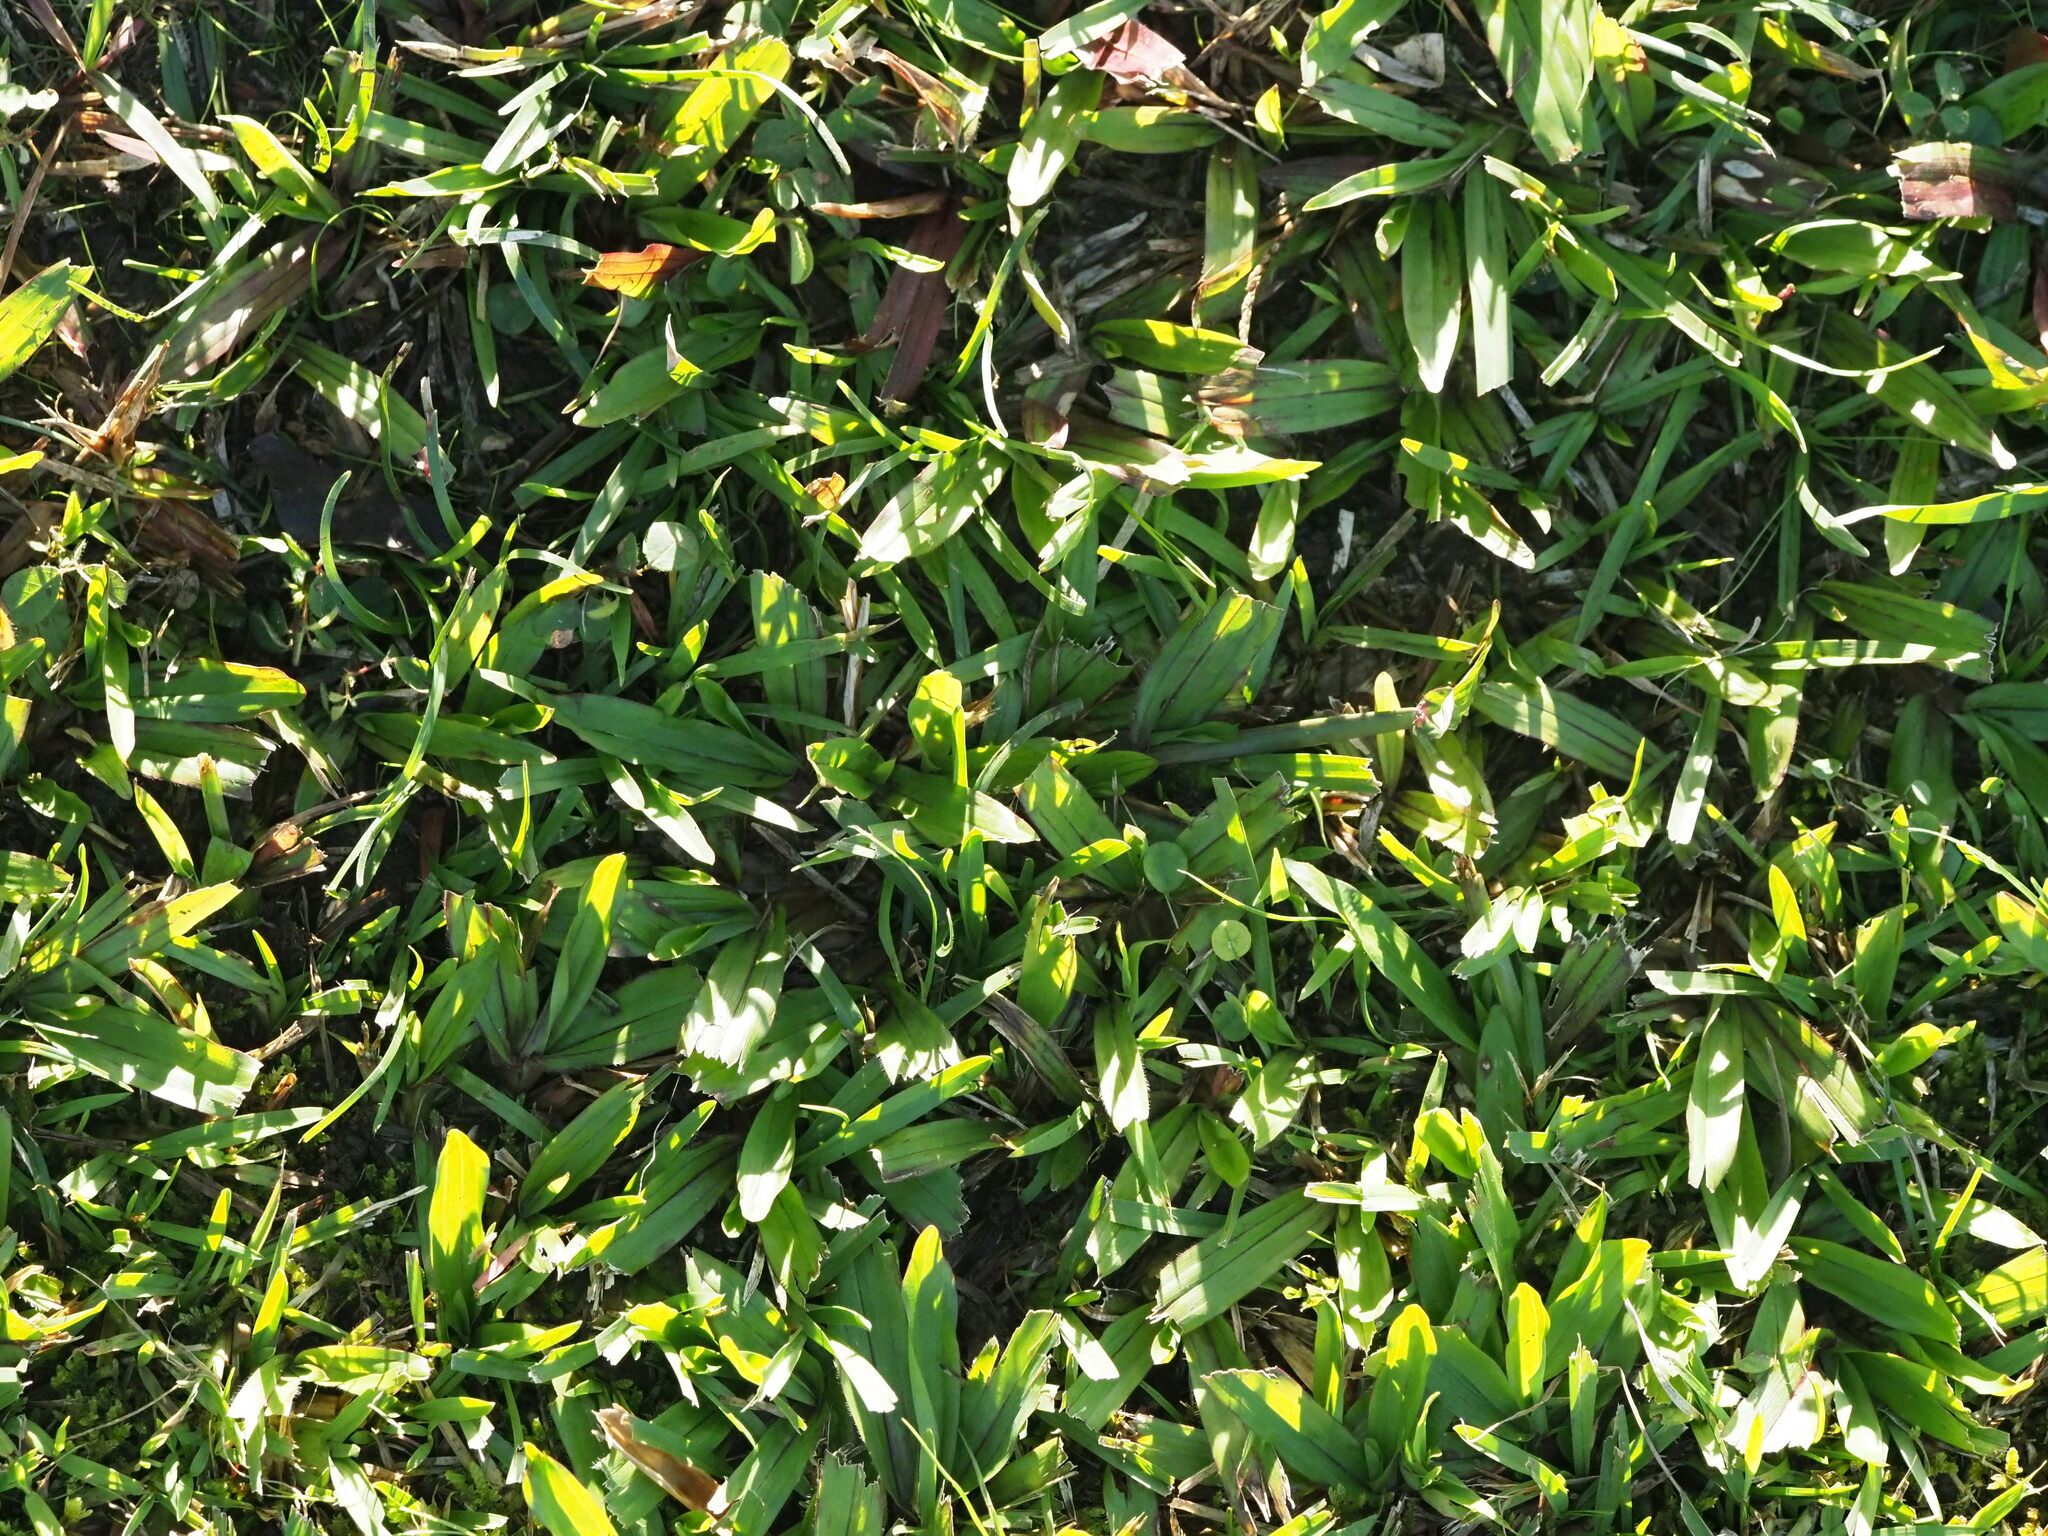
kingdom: Plantae
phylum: Tracheophyta
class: Liliopsida
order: Poales
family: Poaceae
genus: Axonopus
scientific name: Axonopus compressus
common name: American carpet grass
